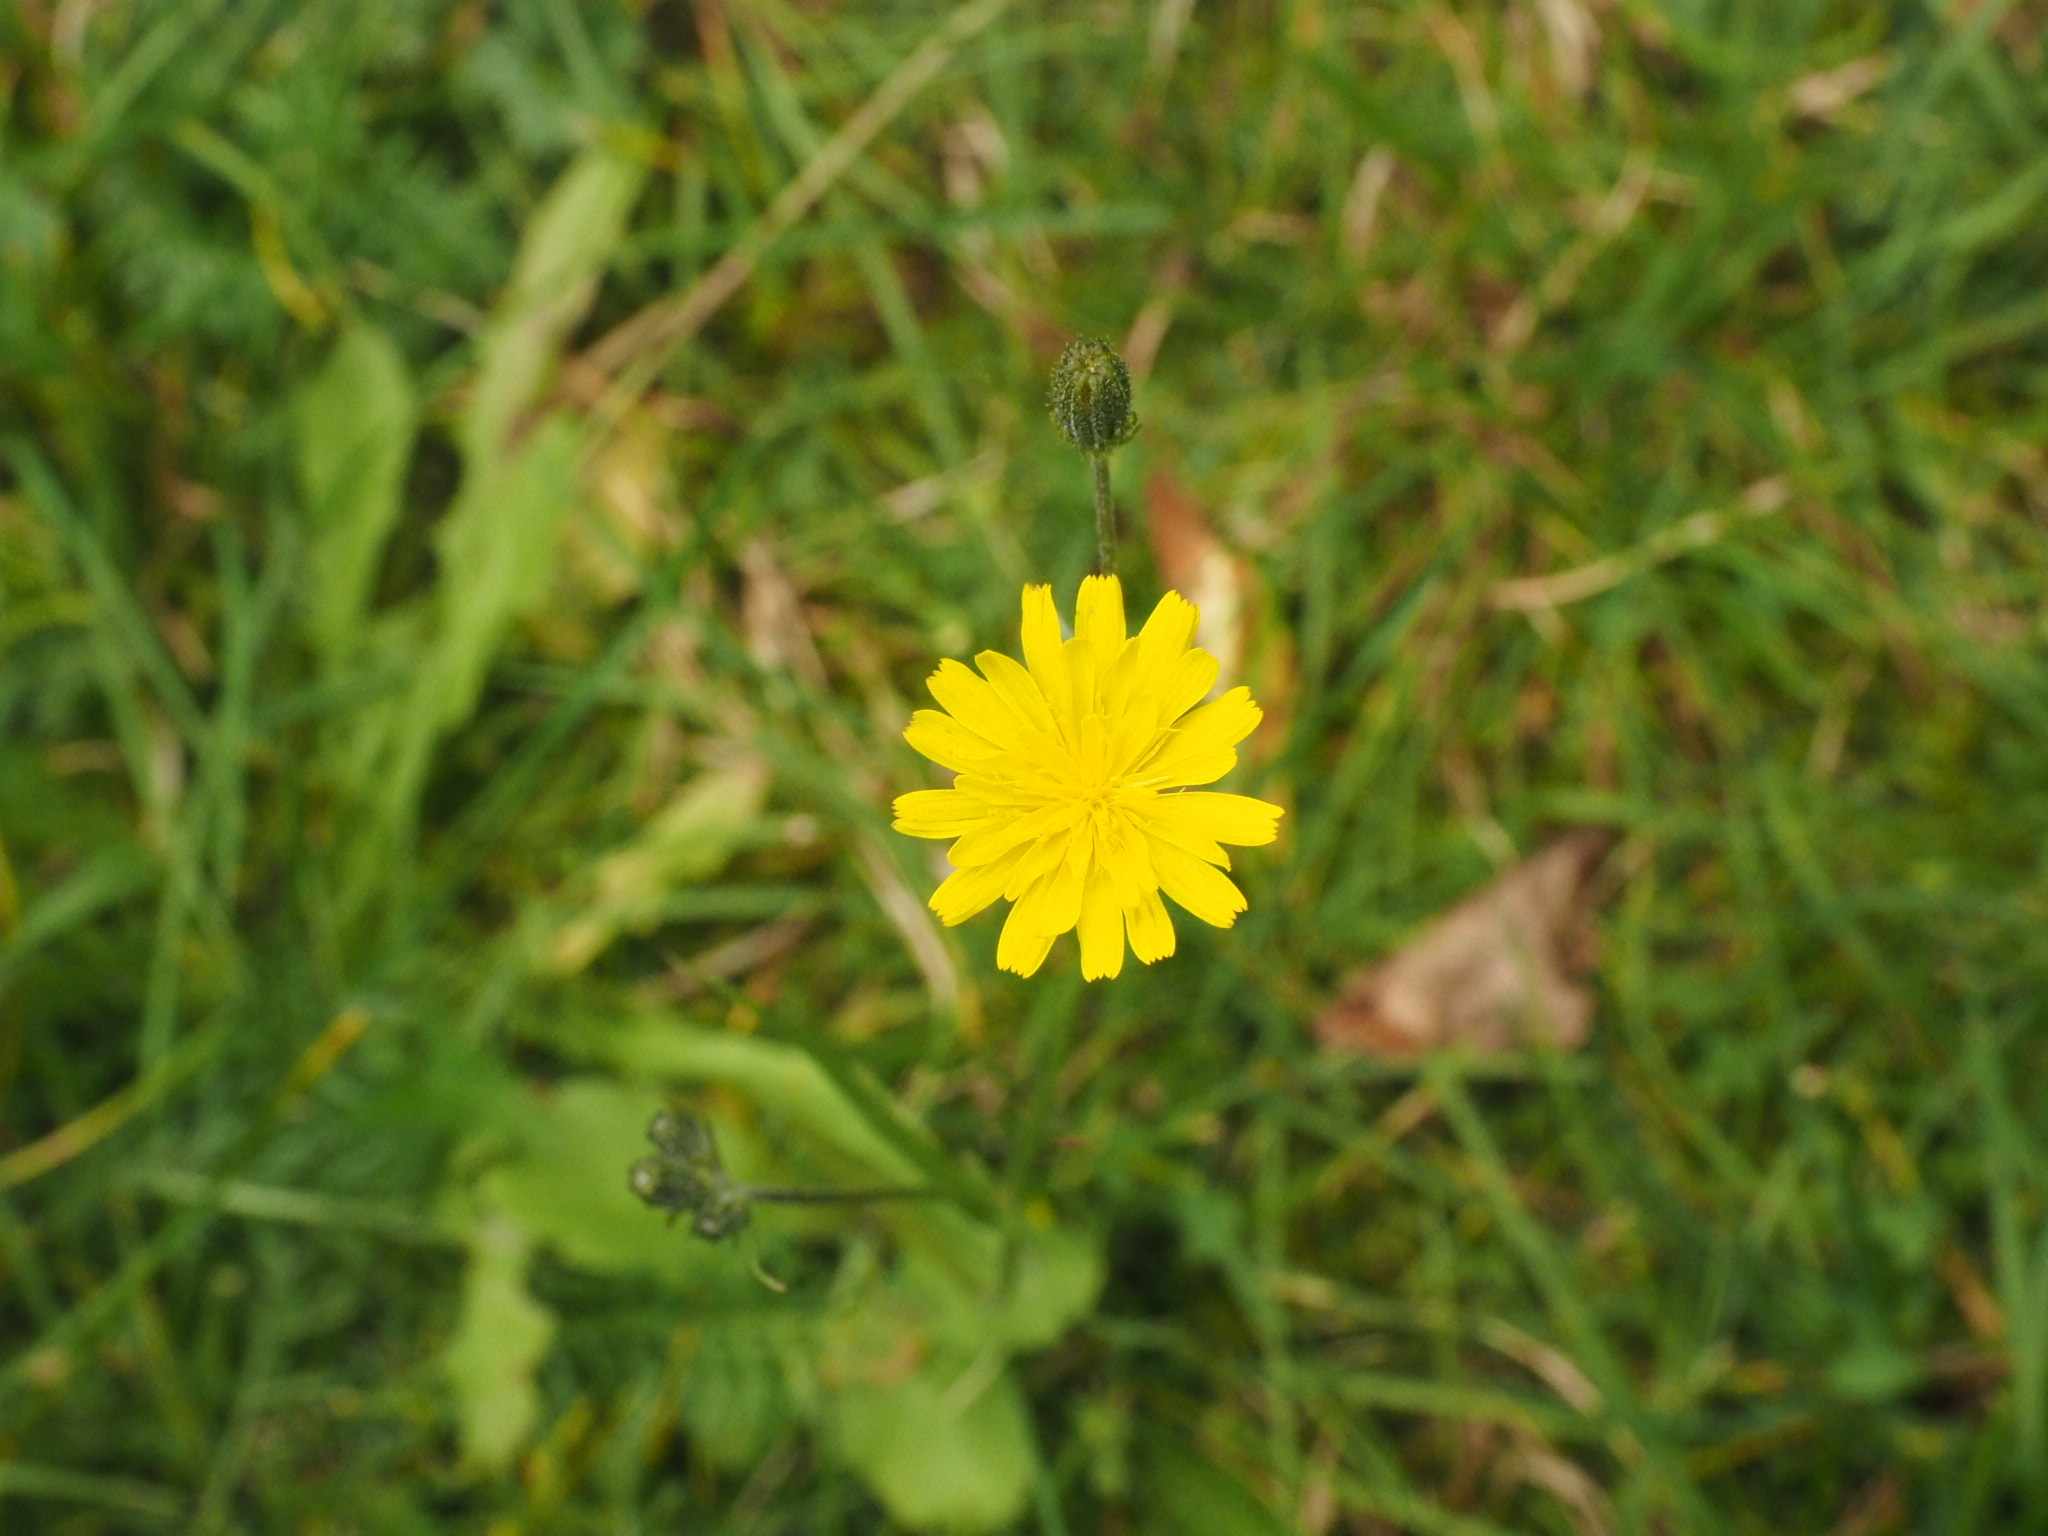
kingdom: Plantae
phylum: Tracheophyta
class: Magnoliopsida
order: Asterales
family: Asteraceae
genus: Hypochaeris
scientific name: Hypochaeris radicata
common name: Flatweed
